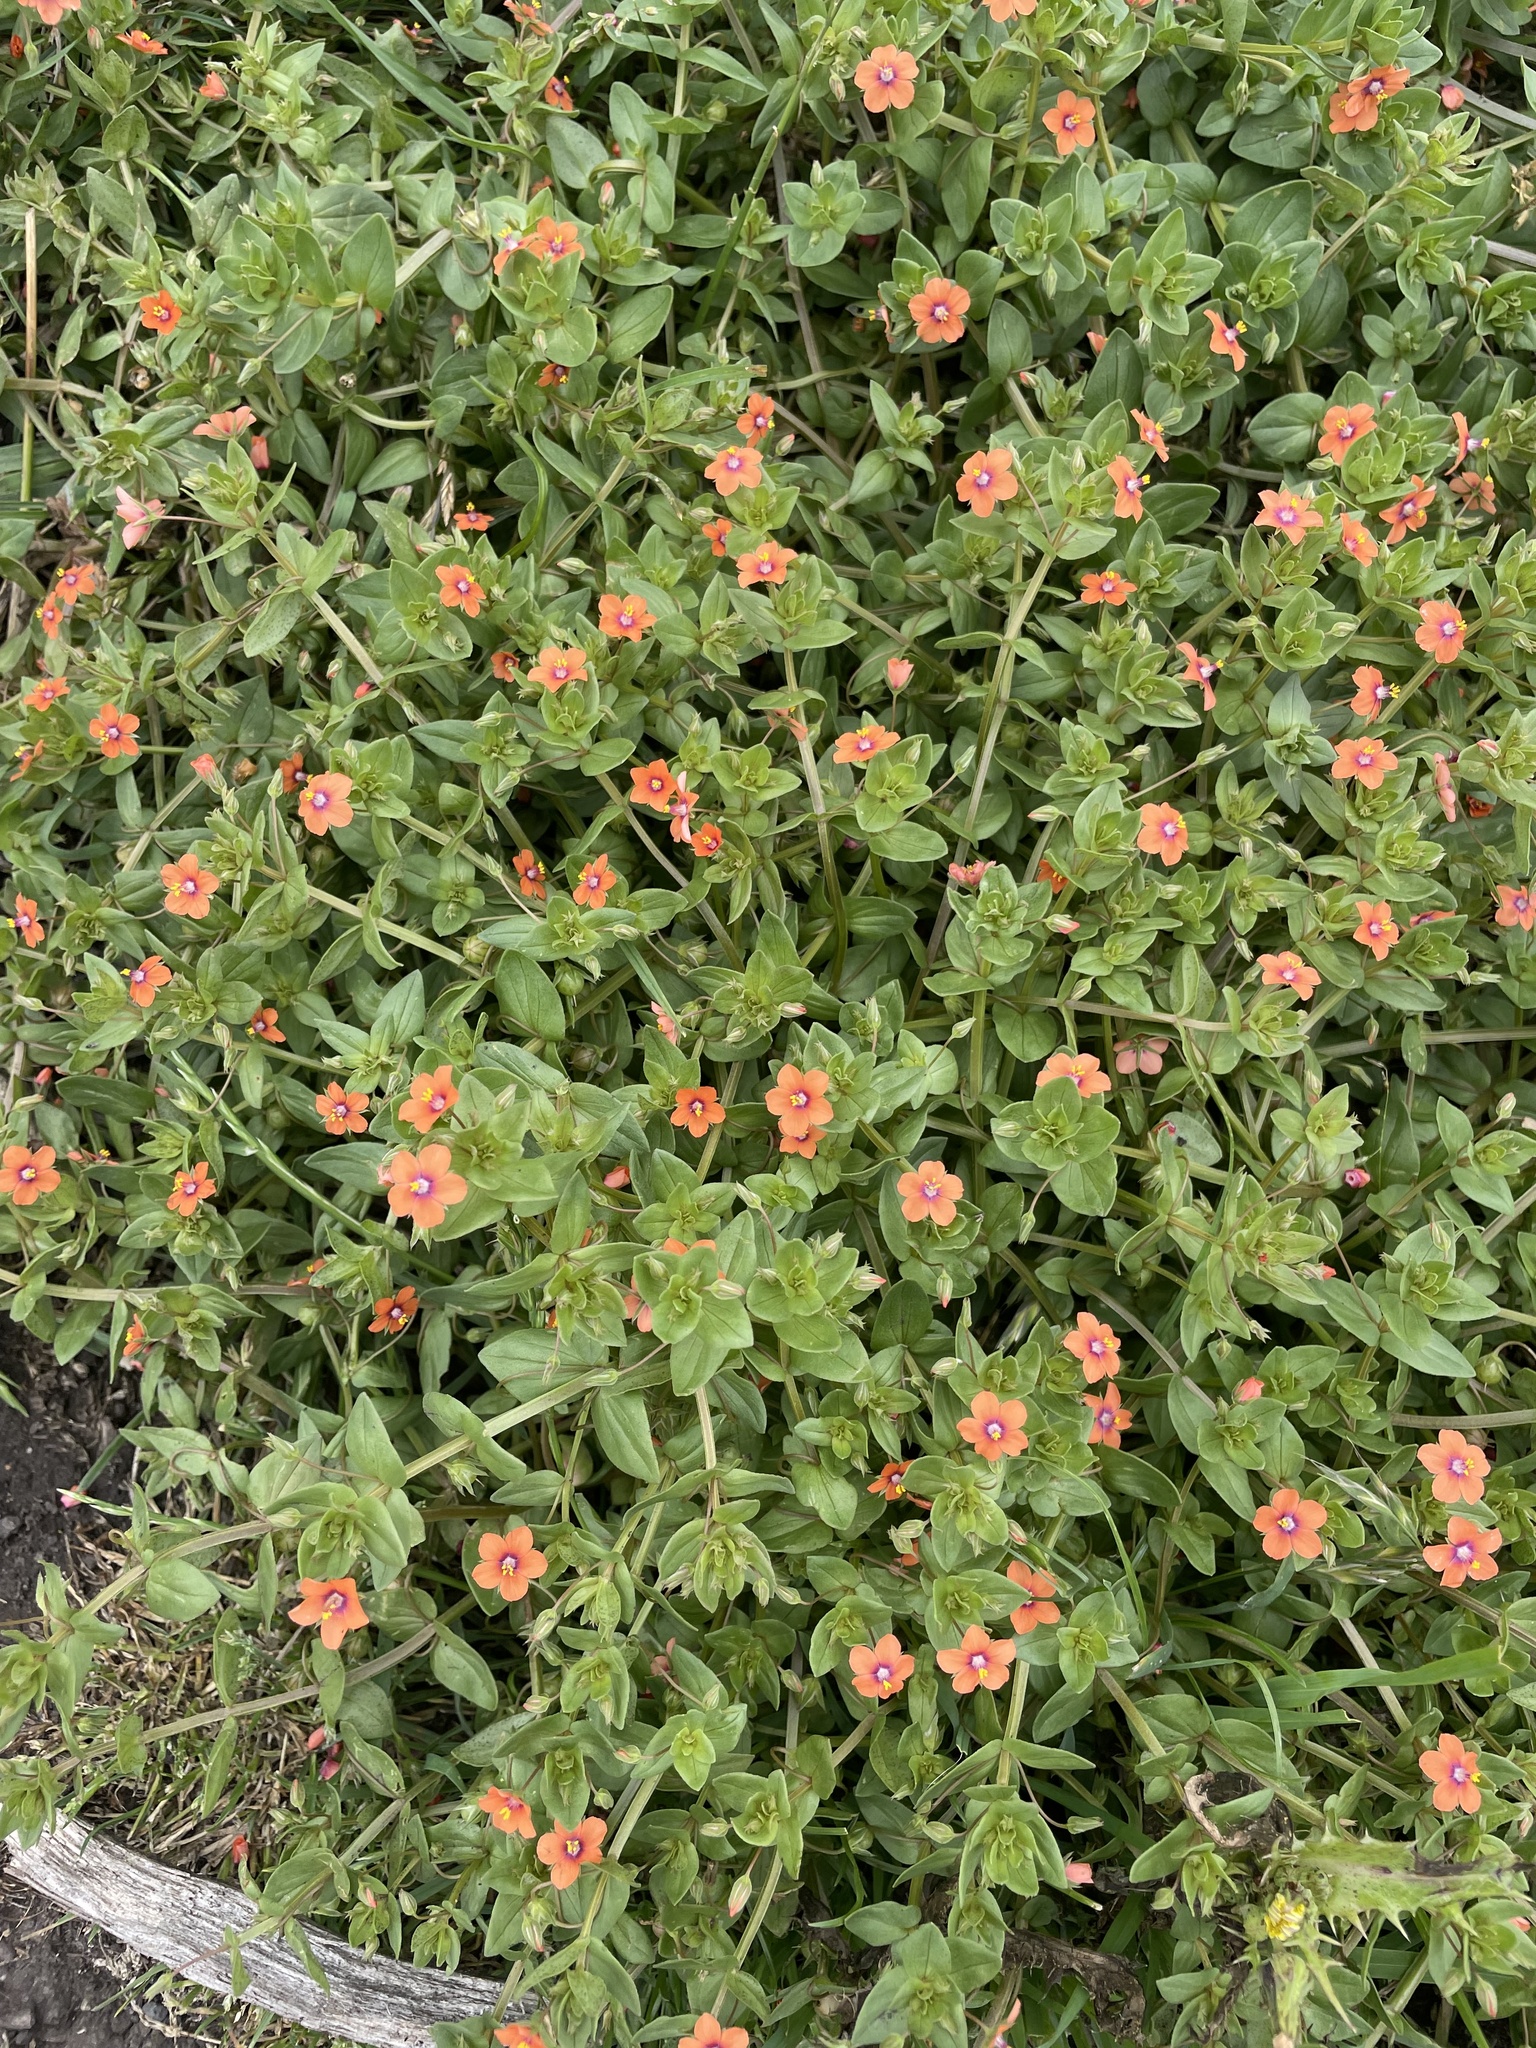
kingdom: Plantae
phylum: Tracheophyta
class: Magnoliopsida
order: Ericales
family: Primulaceae
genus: Lysimachia
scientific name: Lysimachia arvensis
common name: Scarlet pimpernel
